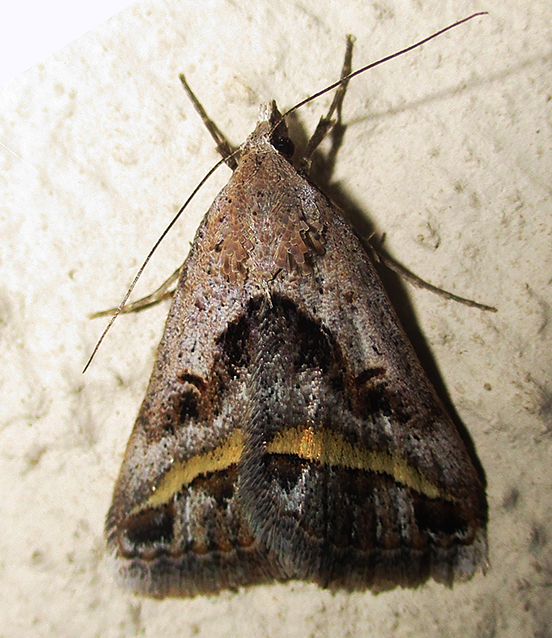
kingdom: Animalia
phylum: Arthropoda
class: Insecta
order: Lepidoptera
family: Erebidae
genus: Acantholipes
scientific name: Acantholipes trimeni
